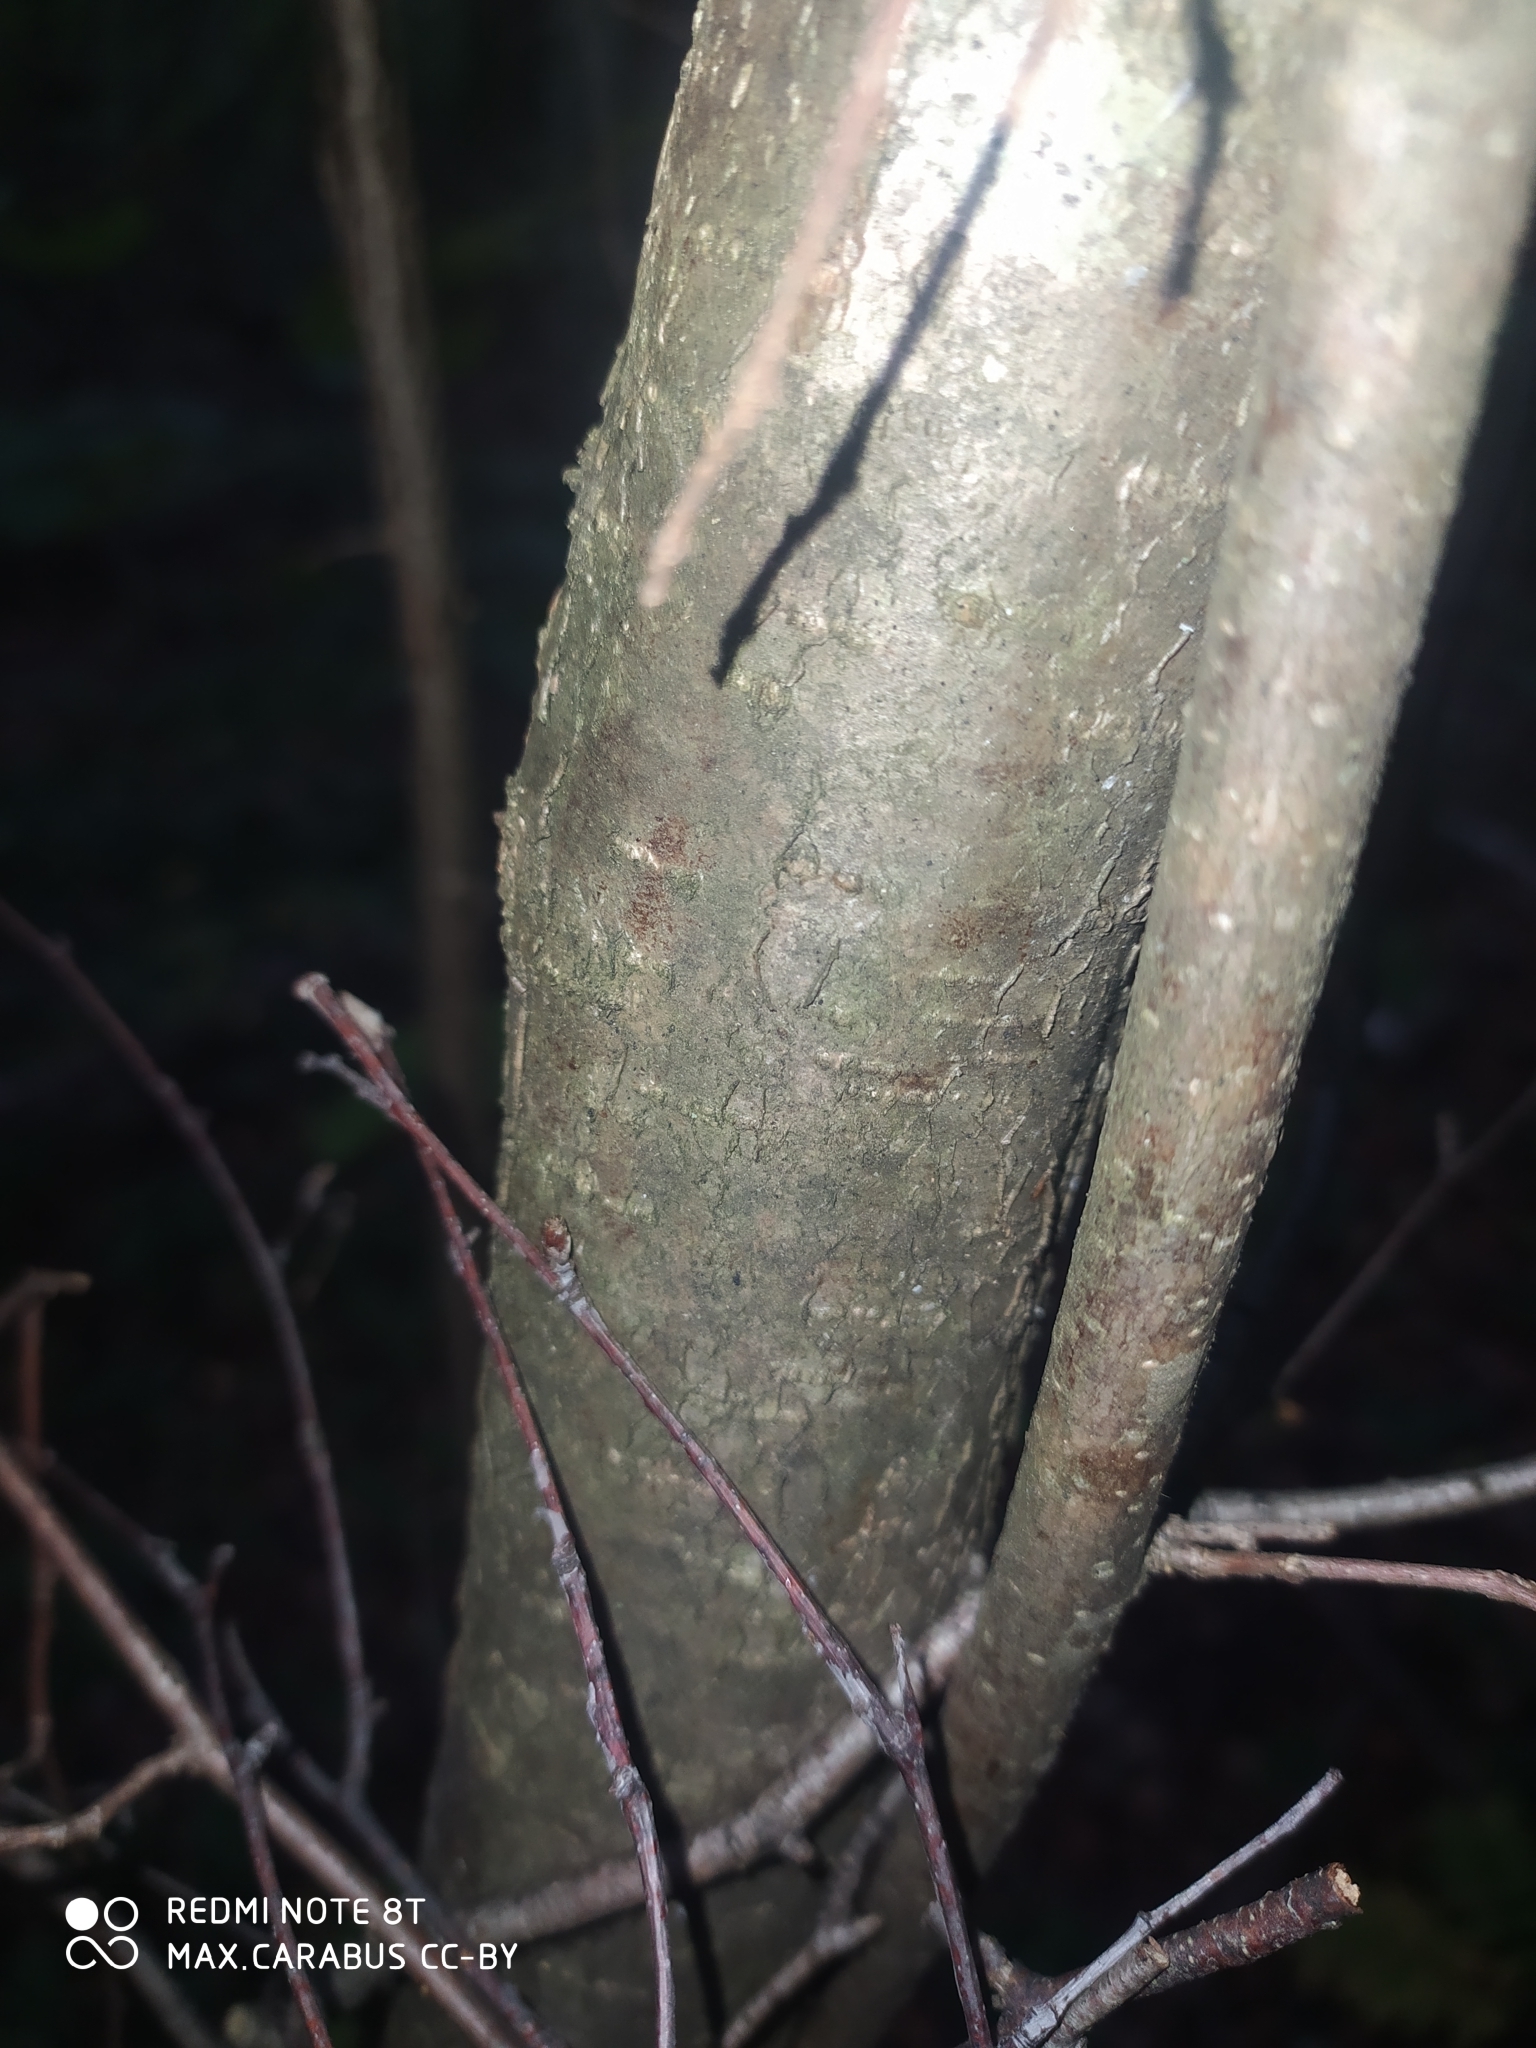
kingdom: Plantae
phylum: Tracheophyta
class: Magnoliopsida
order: Fagales
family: Betulaceae
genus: Corylus
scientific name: Corylus avellana
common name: European hazel
